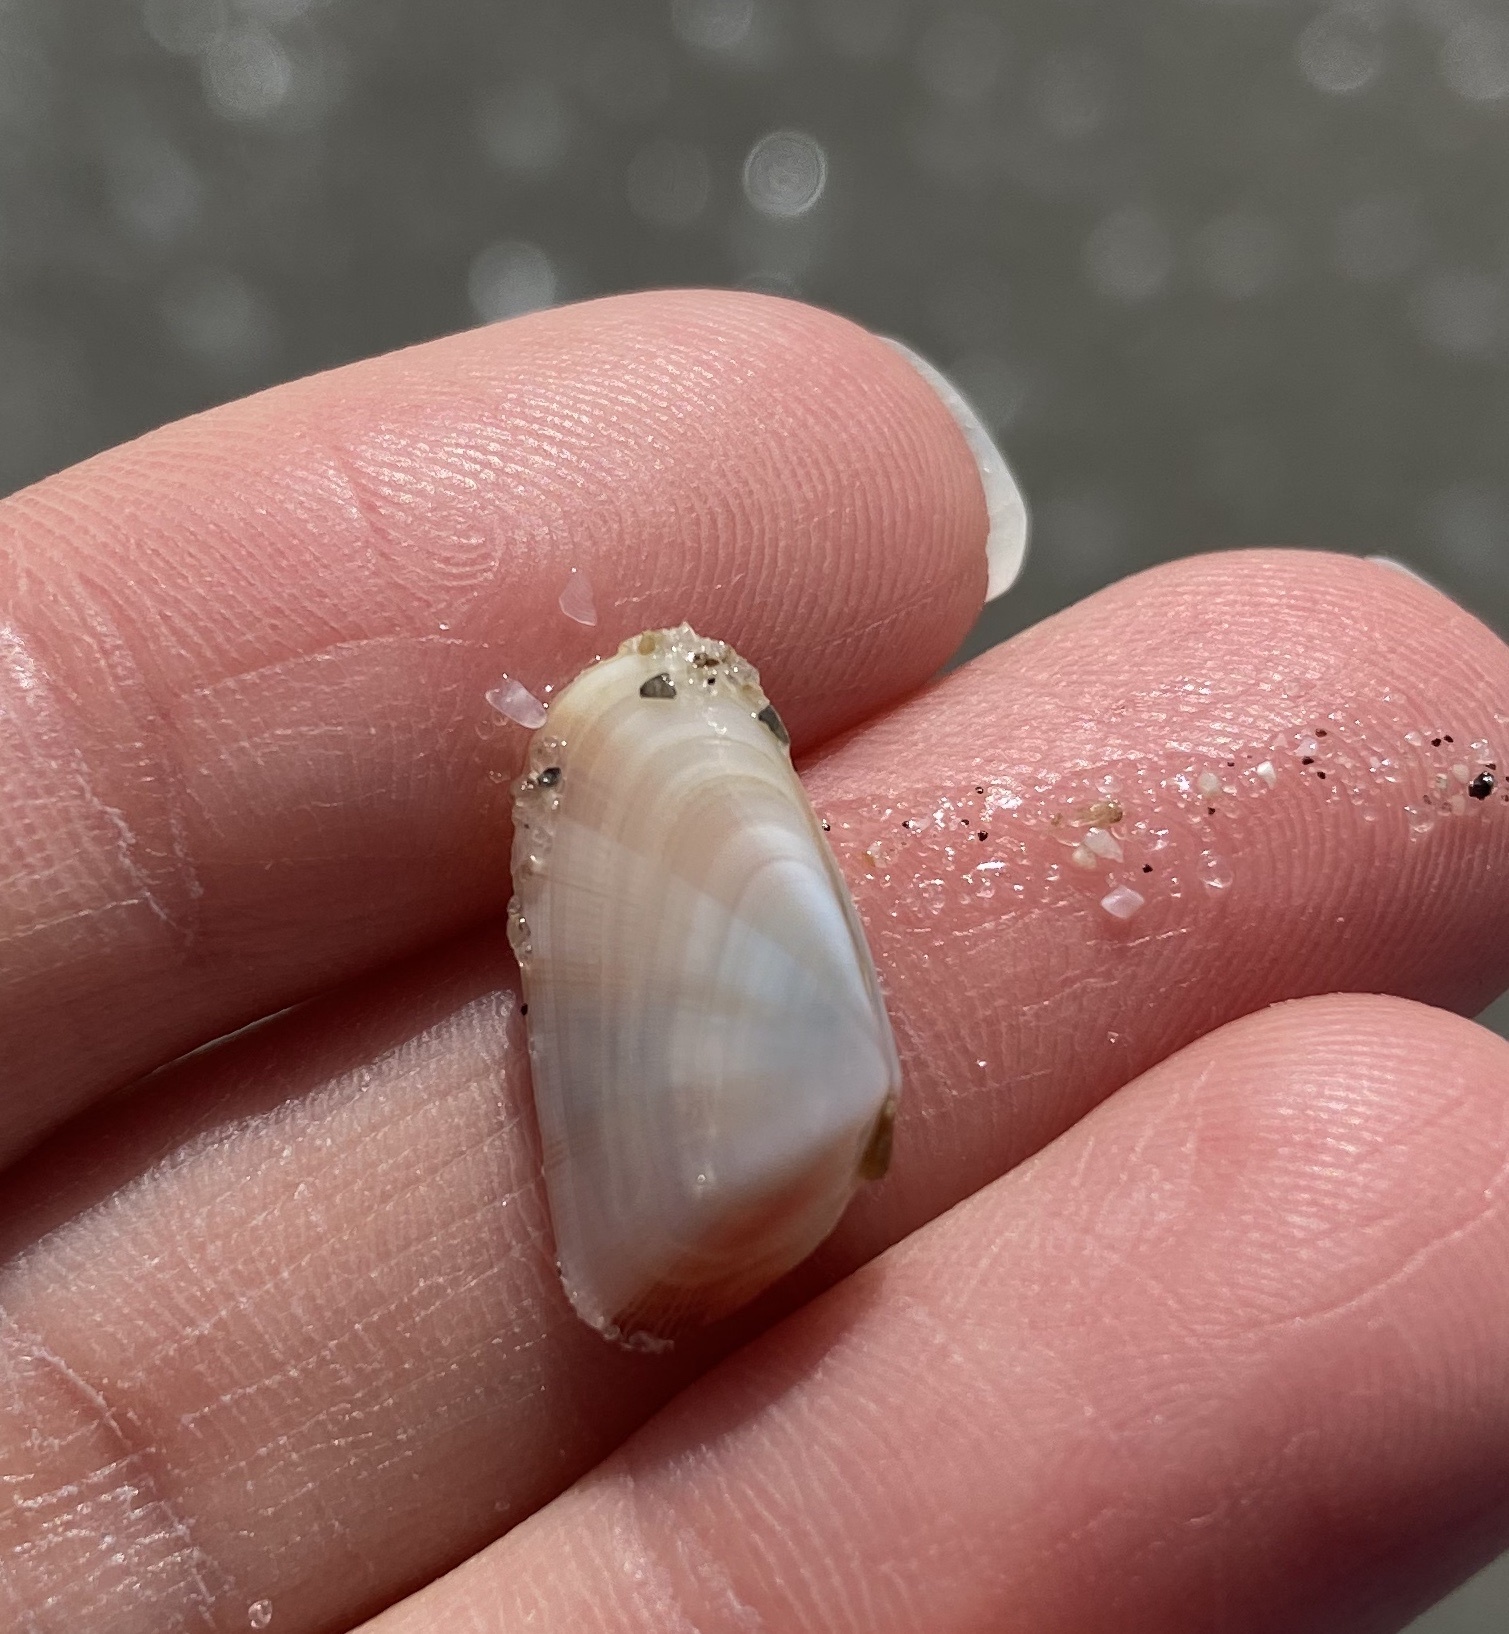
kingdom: Animalia
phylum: Mollusca
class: Bivalvia
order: Cardiida
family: Donacidae
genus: Donax
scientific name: Donax variabilis
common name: Butterfly shell
